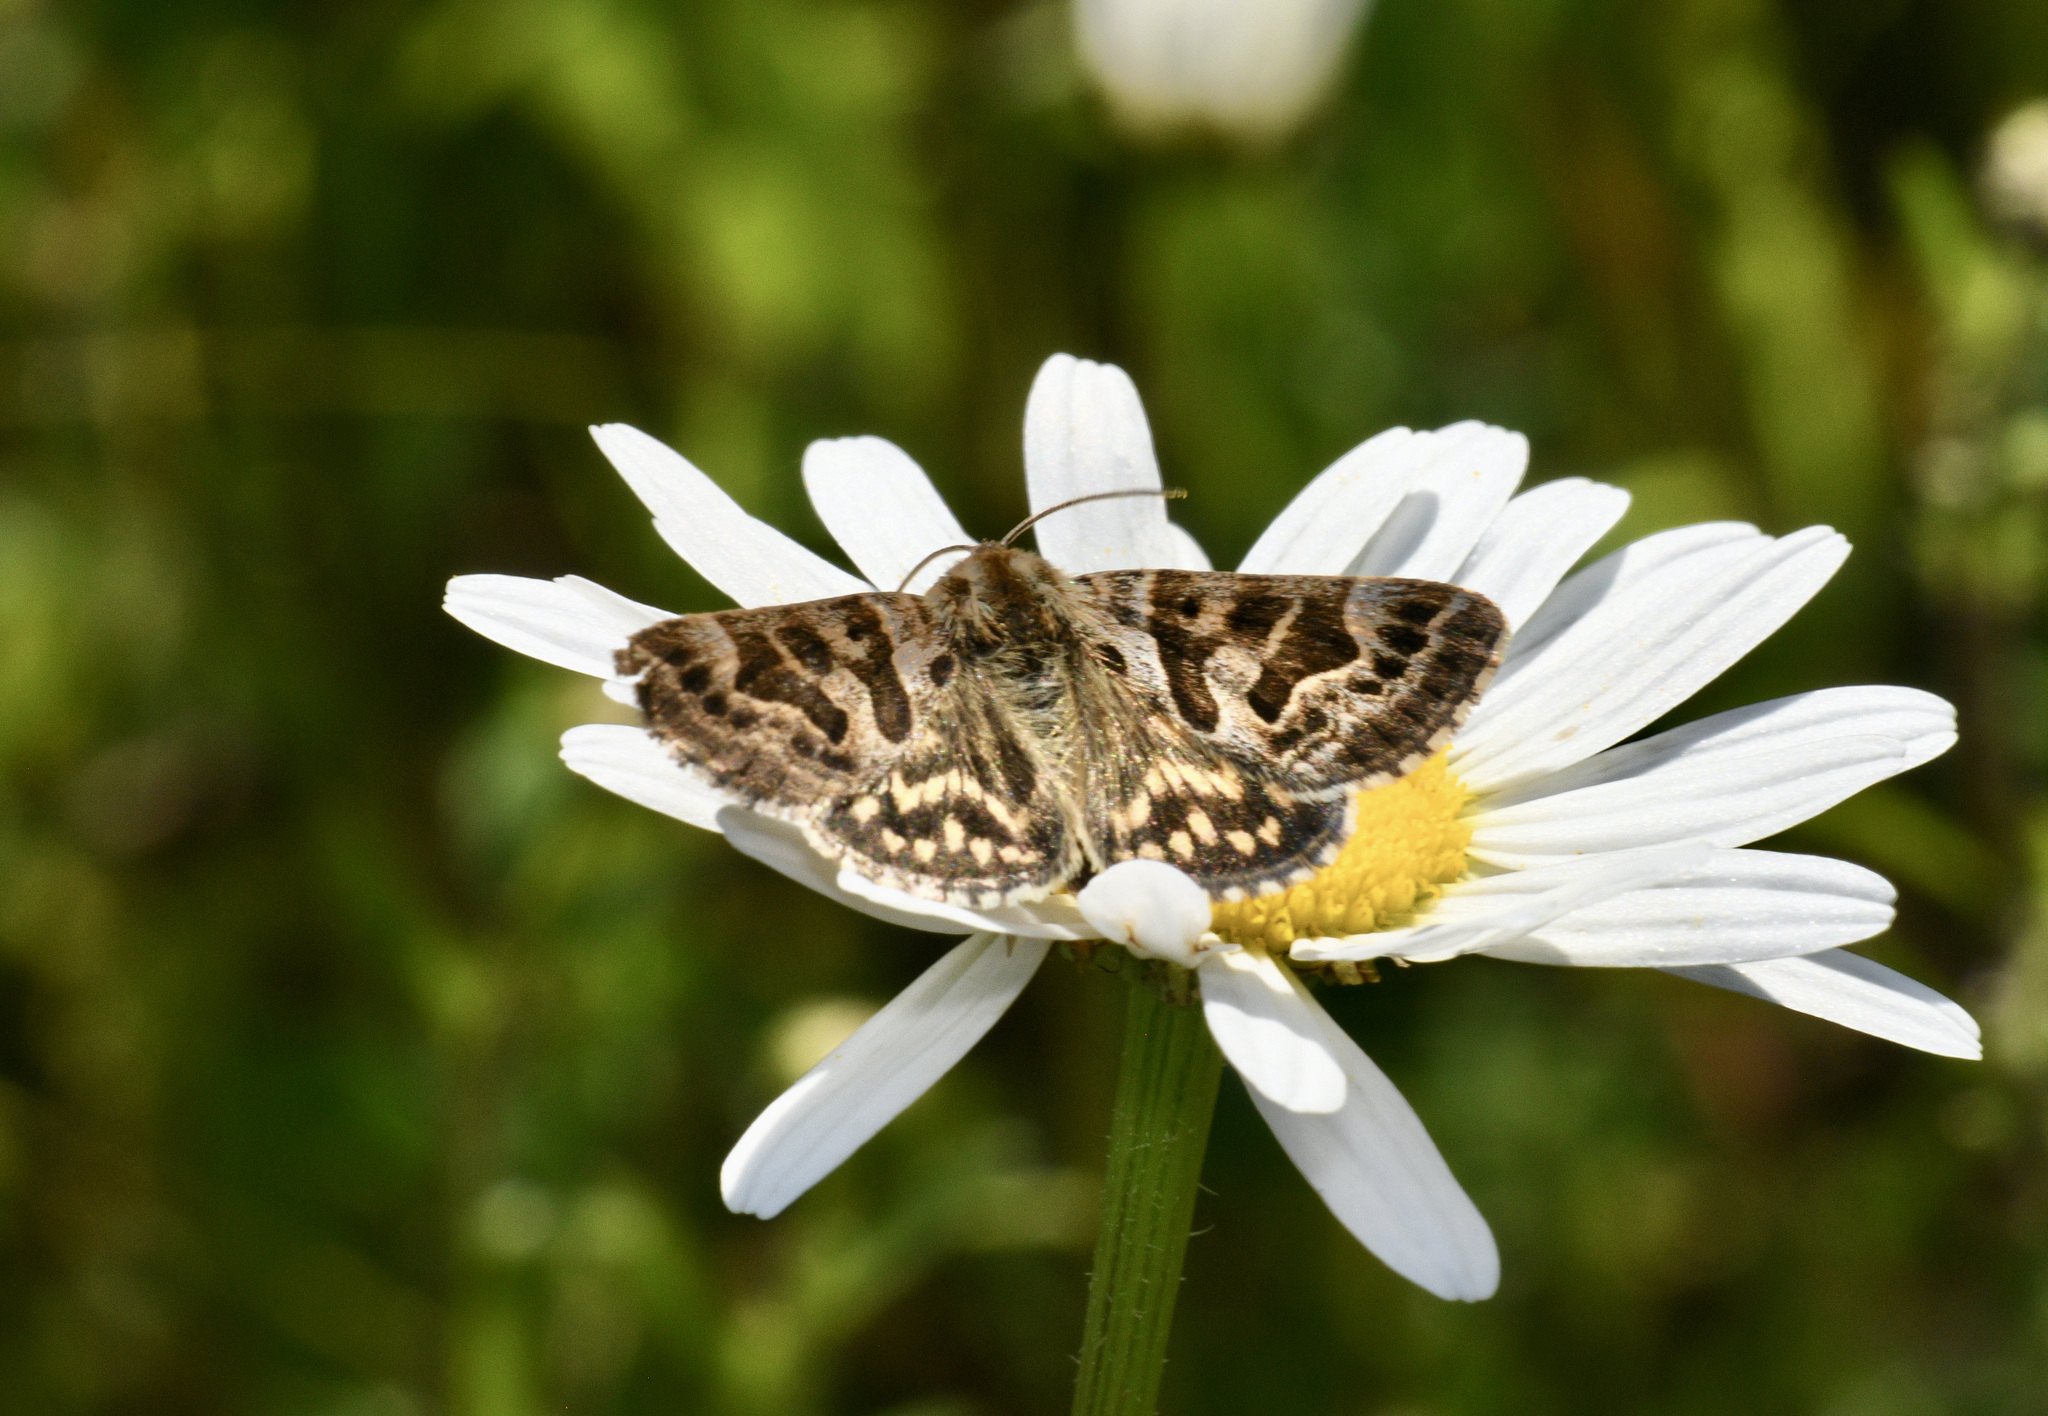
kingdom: Animalia
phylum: Arthropoda
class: Insecta
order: Lepidoptera
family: Erebidae
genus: Callistege
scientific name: Callistege mi
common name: Mother shipton
